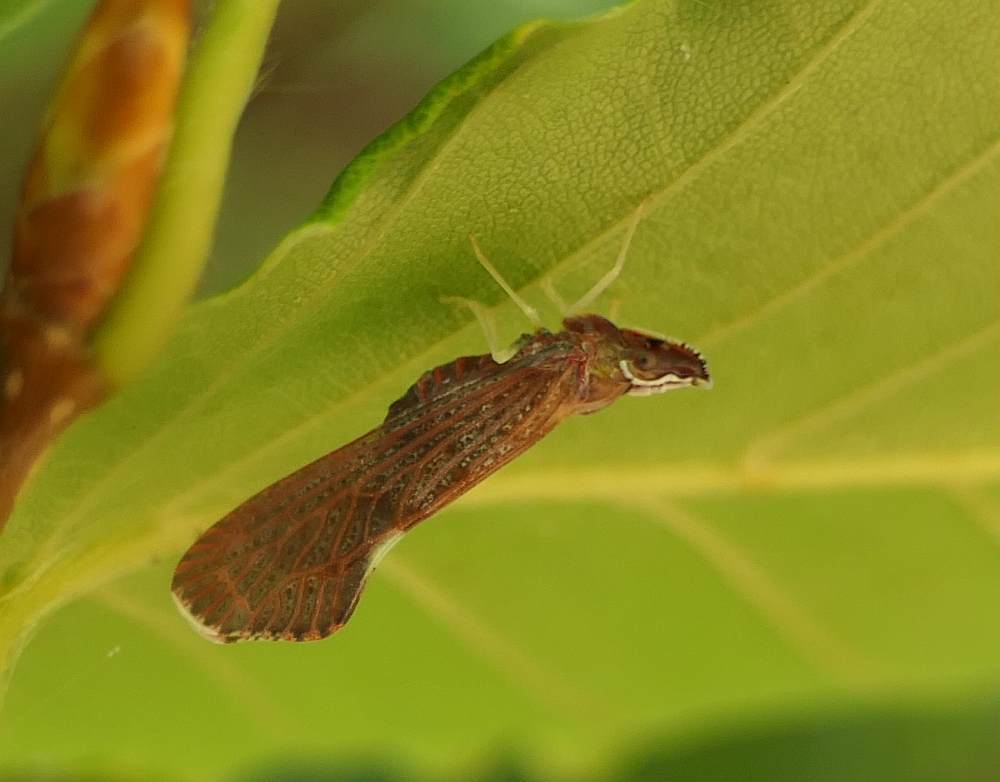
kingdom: Animalia
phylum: Arthropoda
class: Insecta
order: Hemiptera
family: Derbidae
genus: Apache
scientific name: Apache degeeri
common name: Red-fanned planthopper
